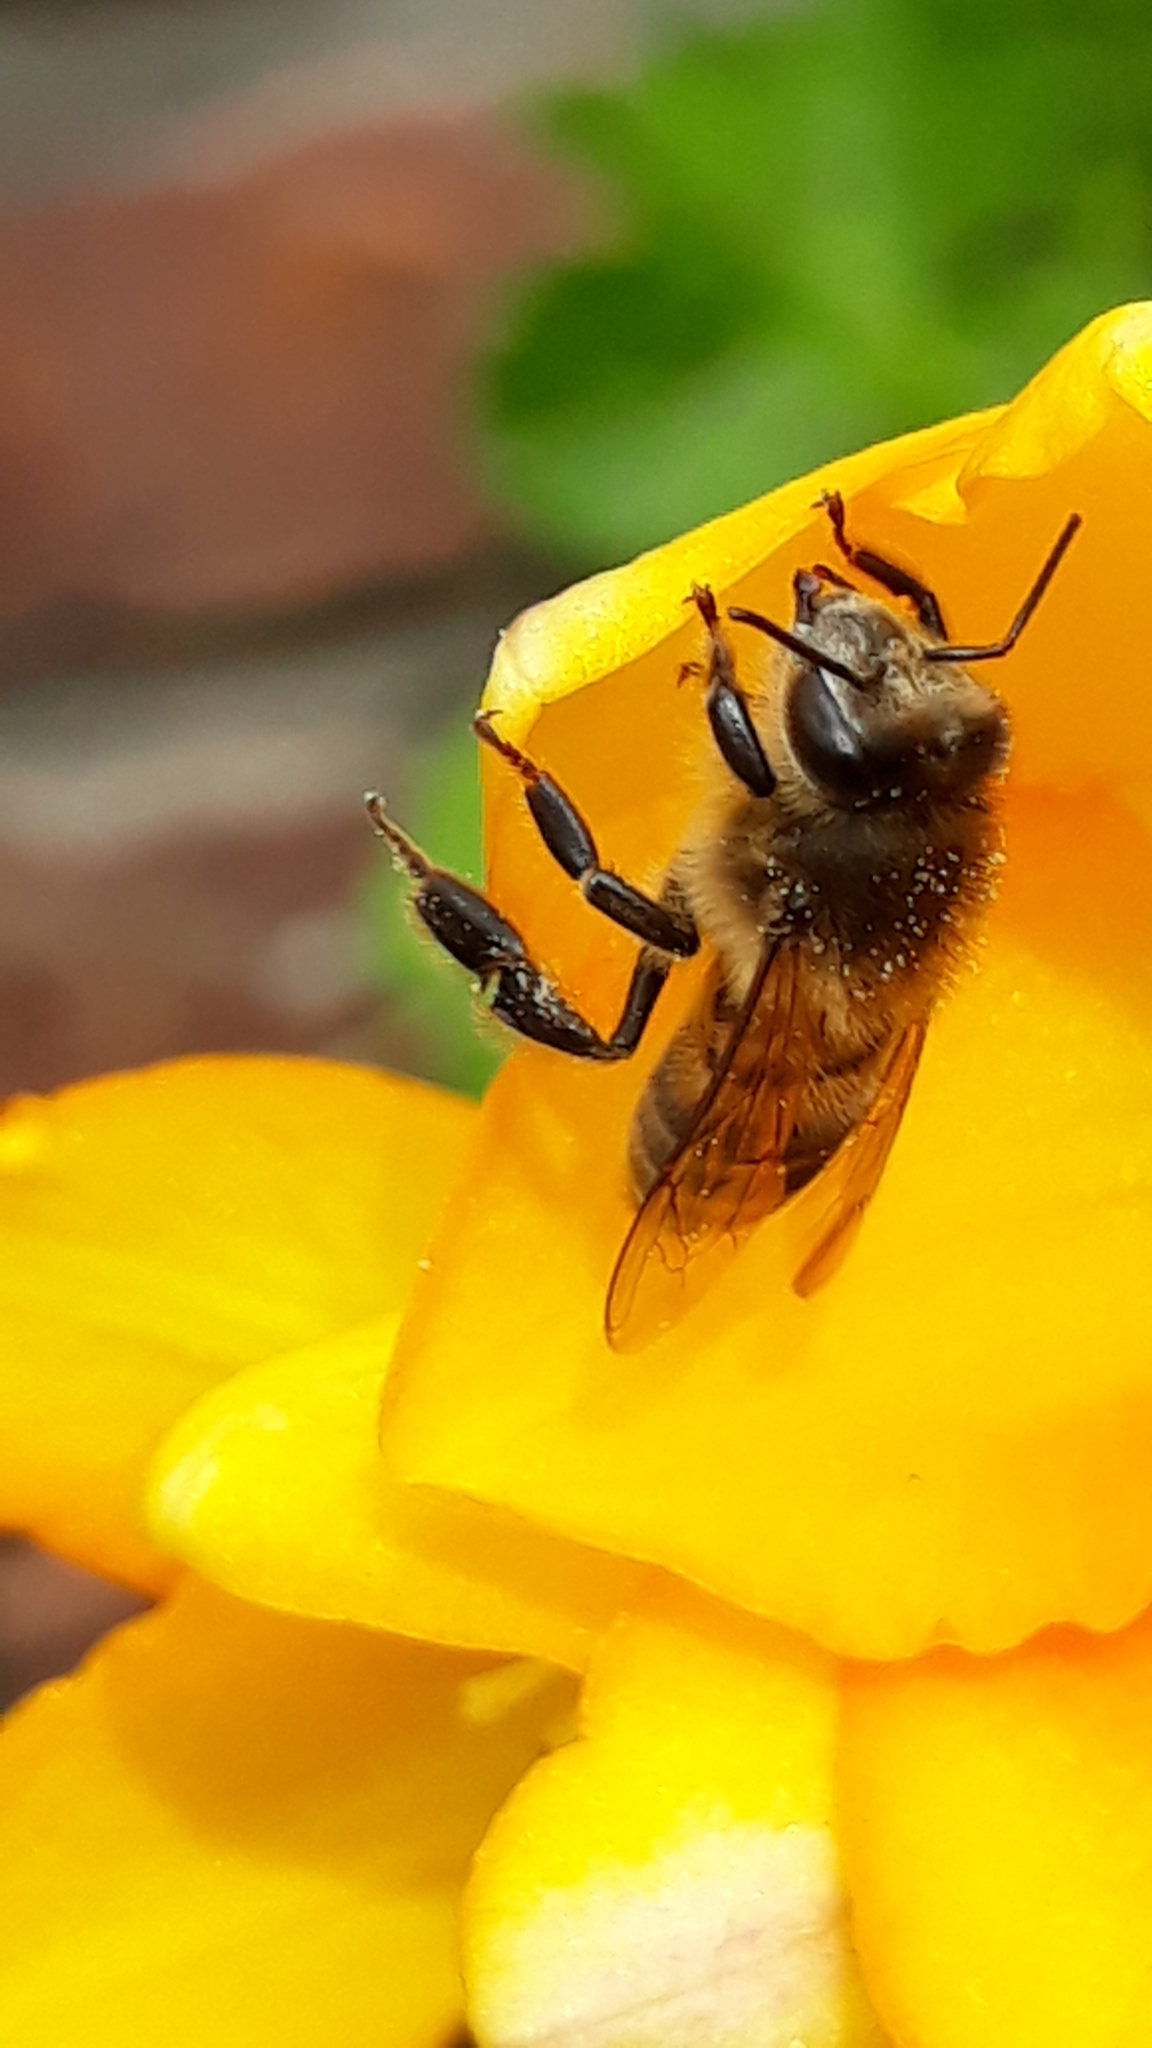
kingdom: Animalia
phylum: Arthropoda
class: Insecta
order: Hymenoptera
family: Apidae
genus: Apis
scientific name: Apis mellifera
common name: Honey bee
